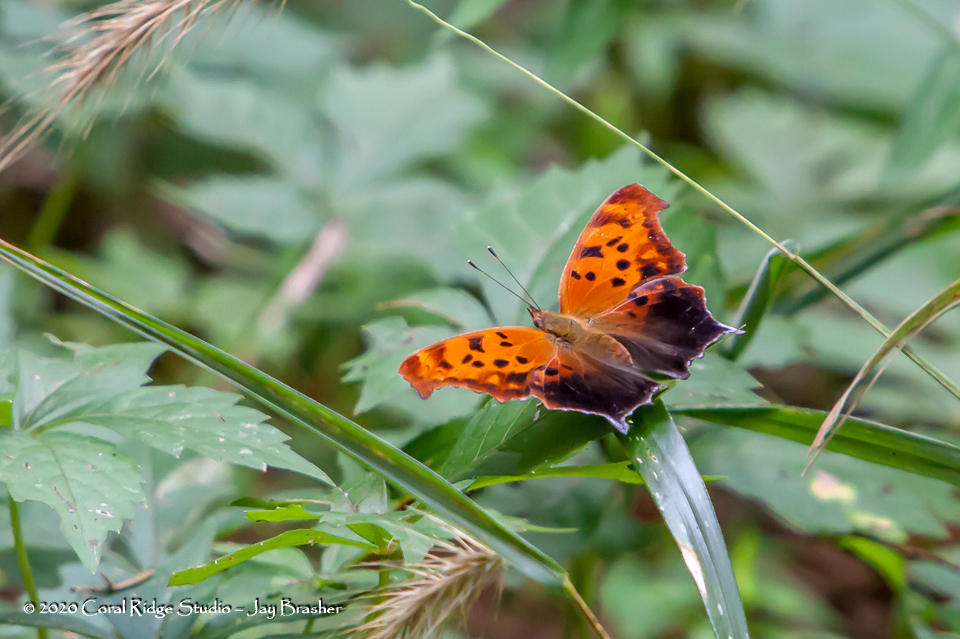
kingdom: Animalia
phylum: Arthropoda
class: Insecta
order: Lepidoptera
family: Nymphalidae
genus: Polygonia
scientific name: Polygonia interrogationis
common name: Question mark
